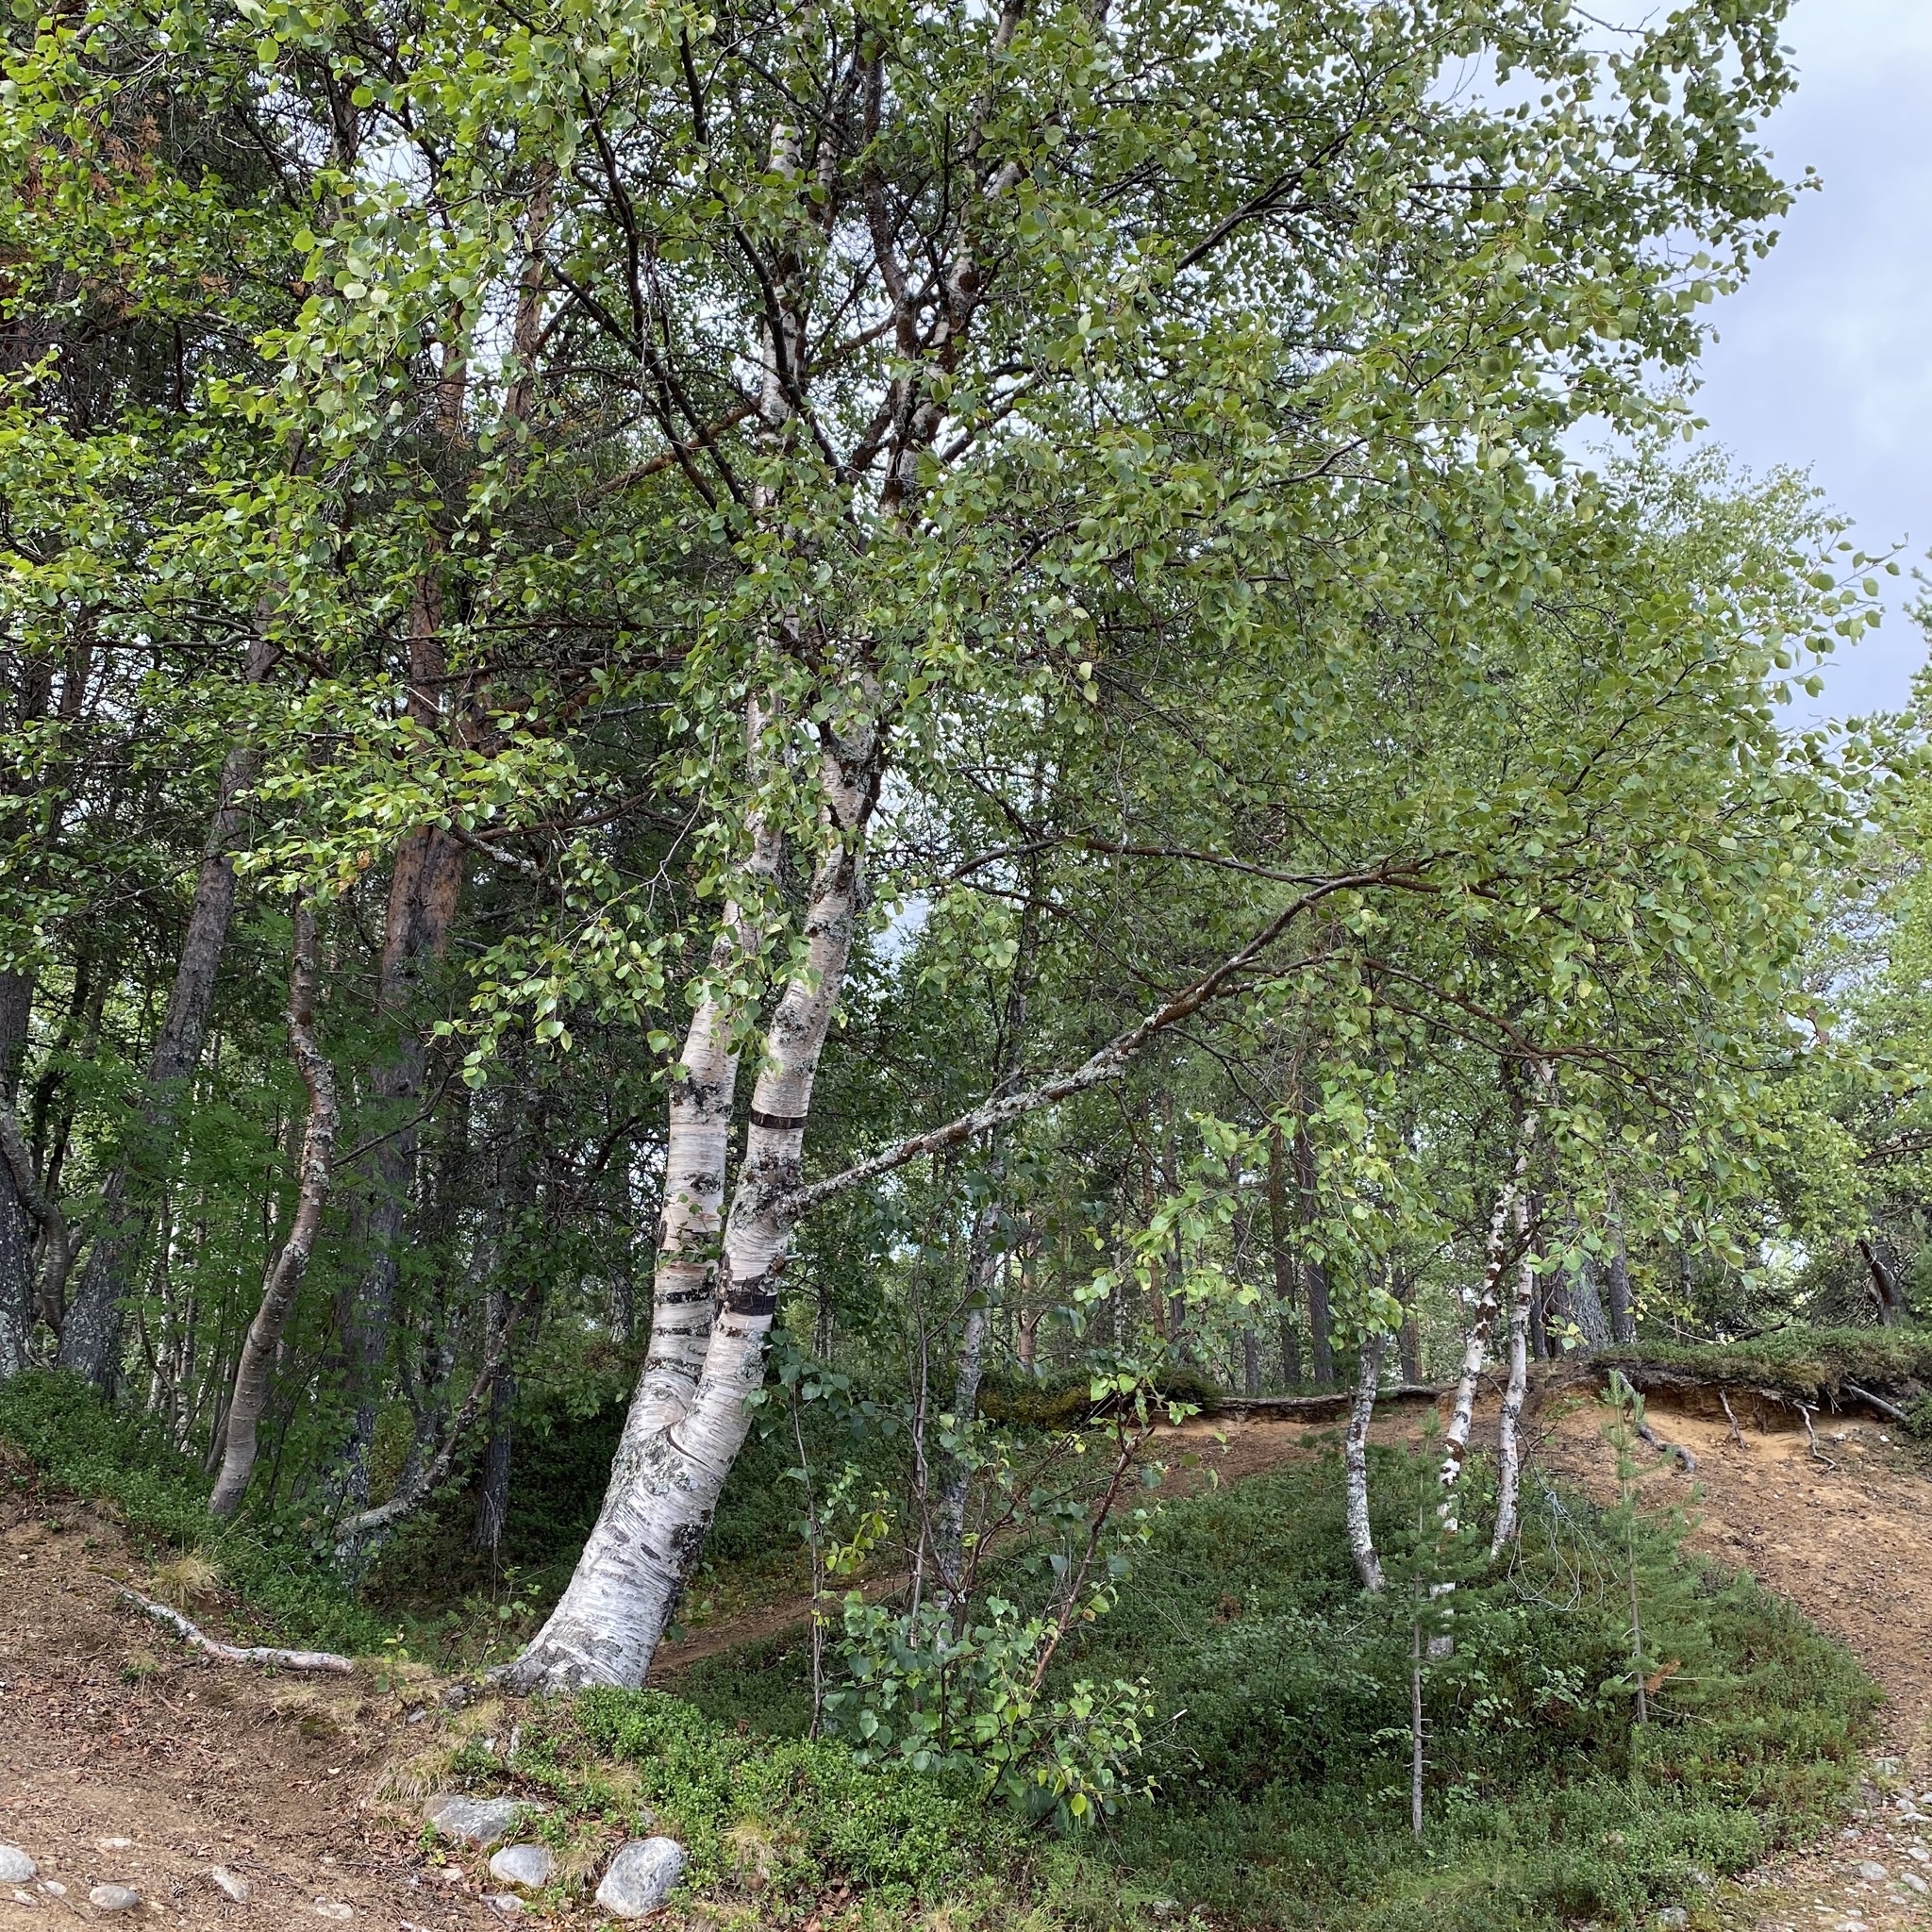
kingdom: Plantae
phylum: Tracheophyta
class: Magnoliopsida
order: Fagales
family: Betulaceae
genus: Betula
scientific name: Betula pubescens
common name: Downy birch
